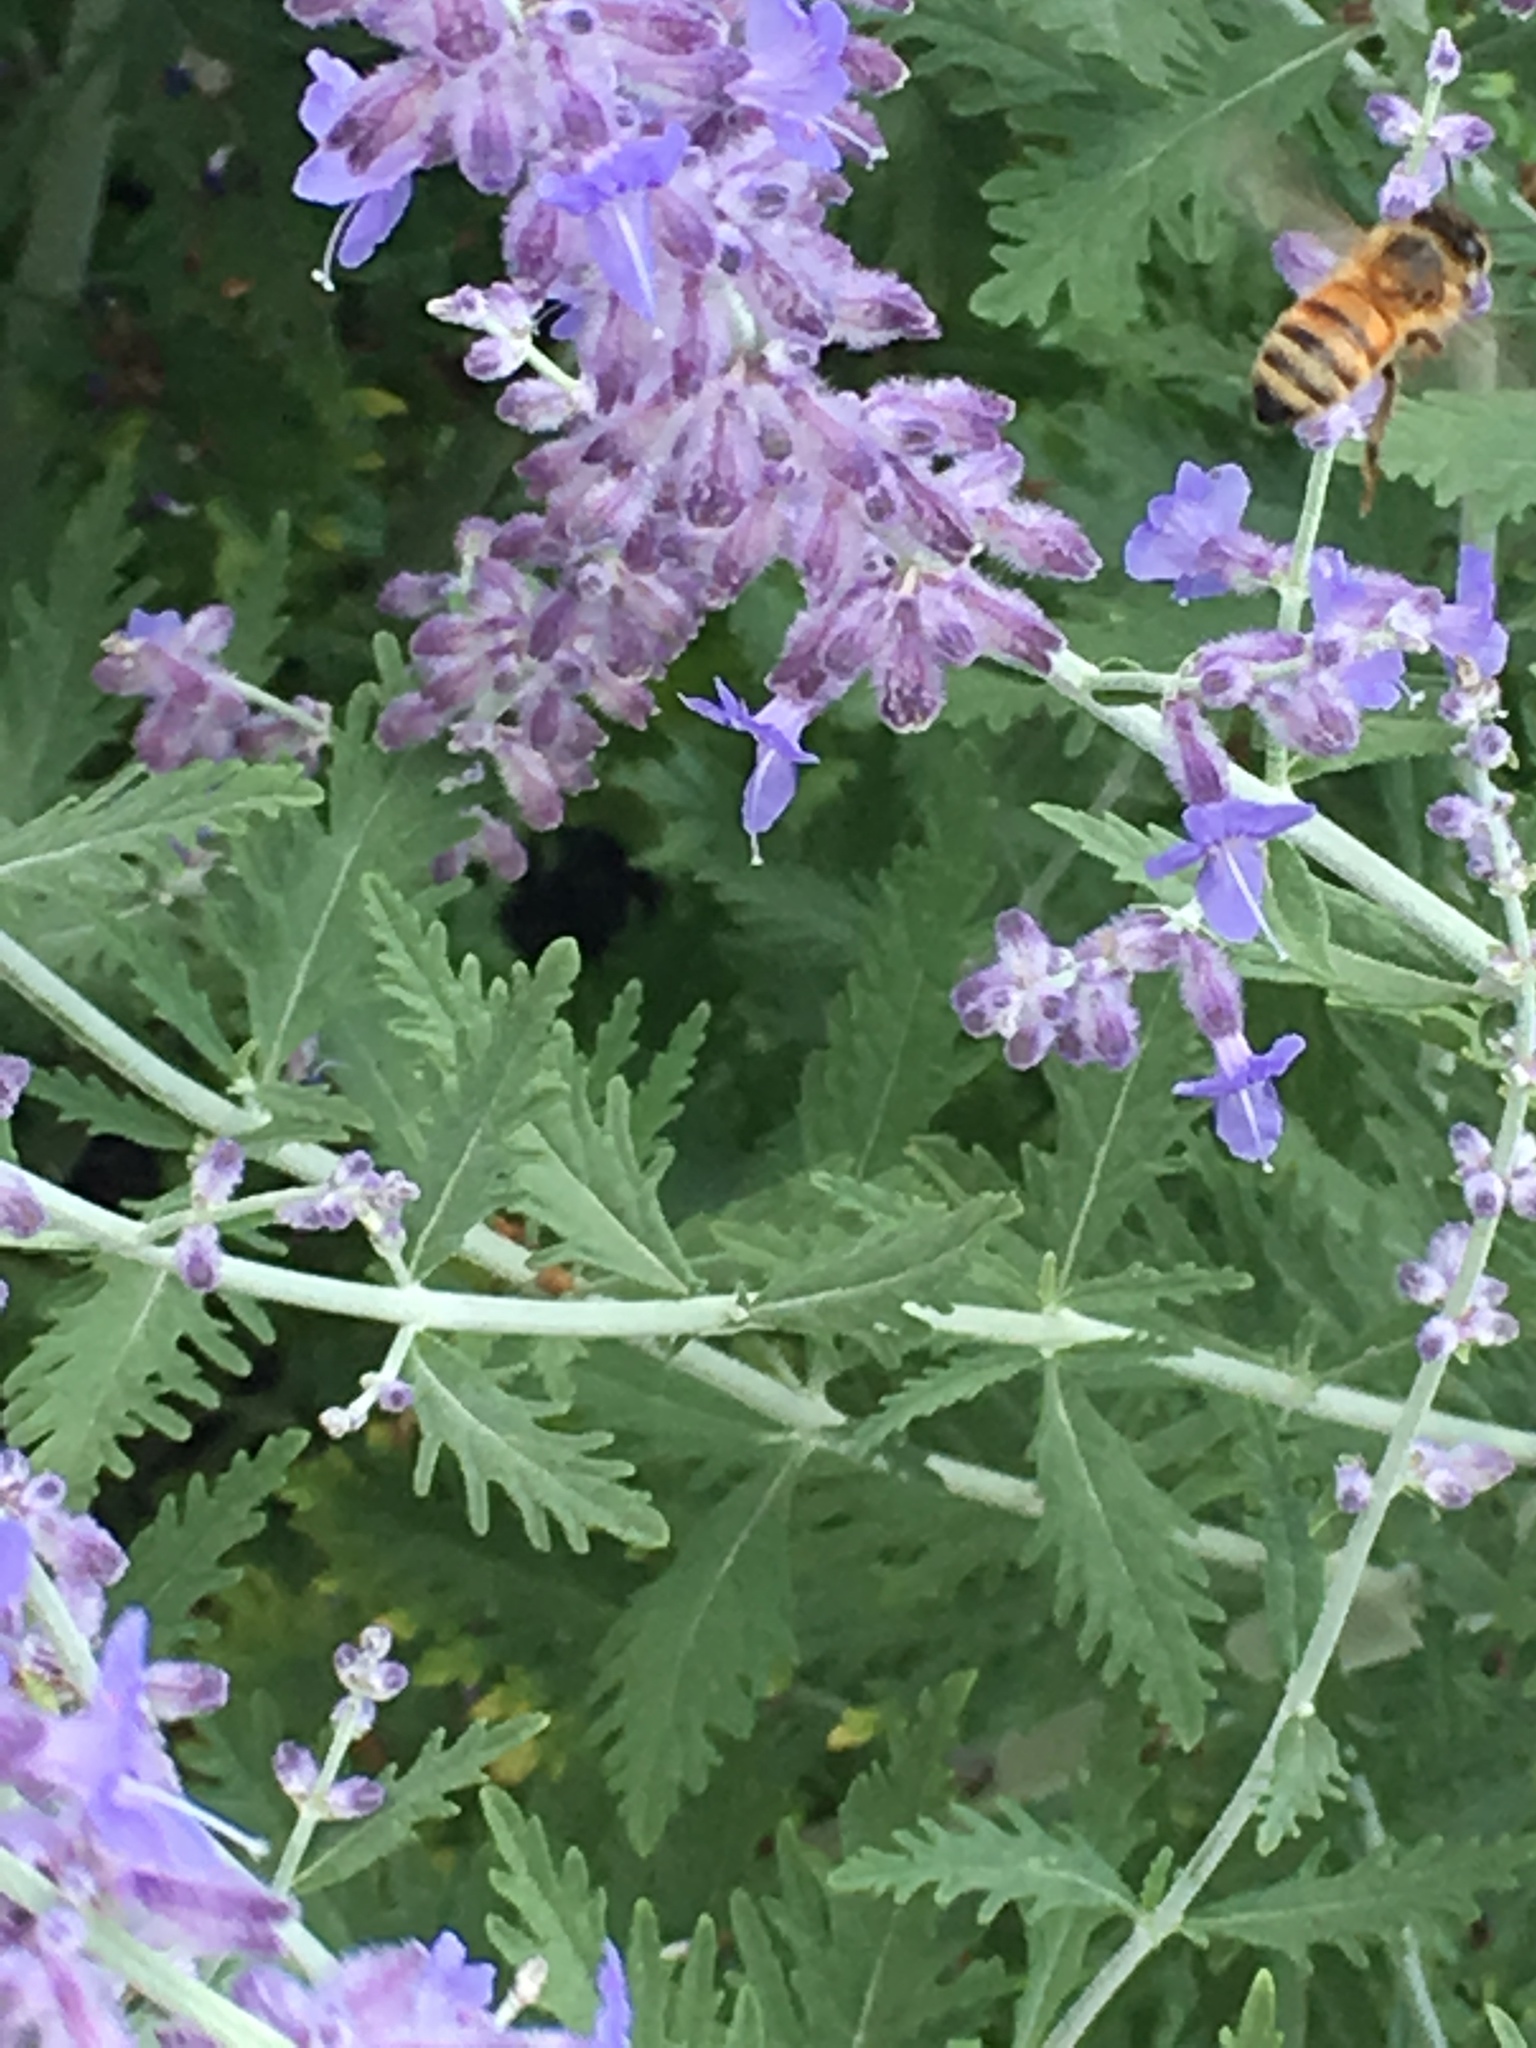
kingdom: Animalia
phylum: Arthropoda
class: Insecta
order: Hymenoptera
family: Apidae
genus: Apis
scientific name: Apis mellifera
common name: Honey bee
